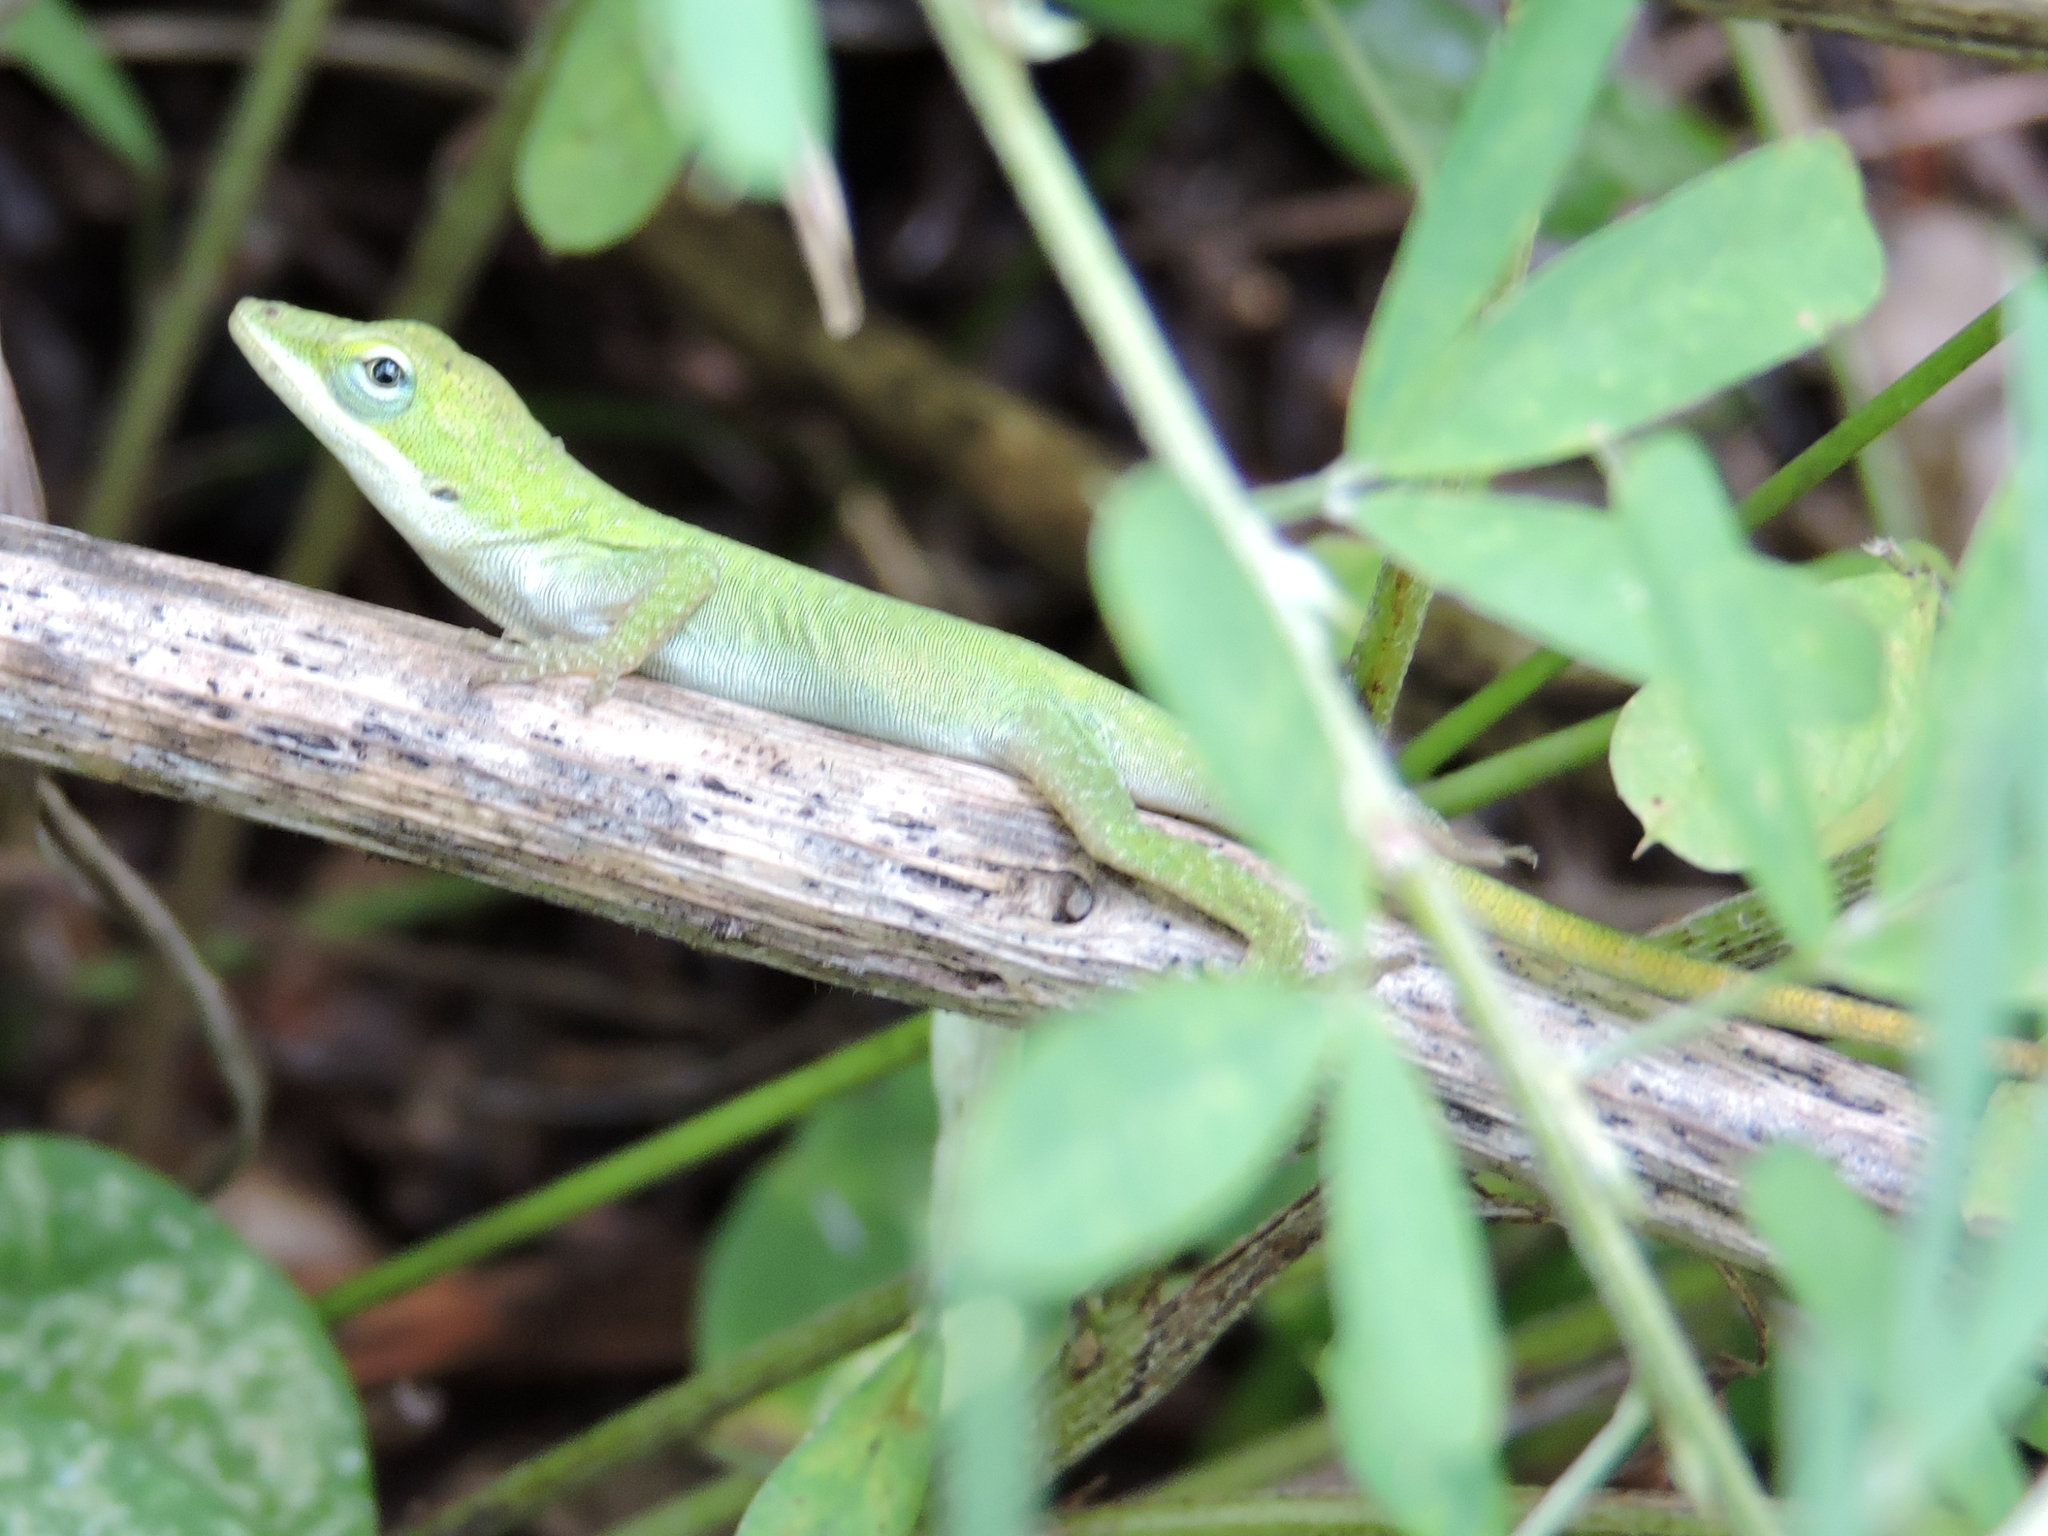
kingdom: Animalia
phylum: Chordata
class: Squamata
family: Dactyloidae
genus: Anolis
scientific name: Anolis carolinensis
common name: Green anole
